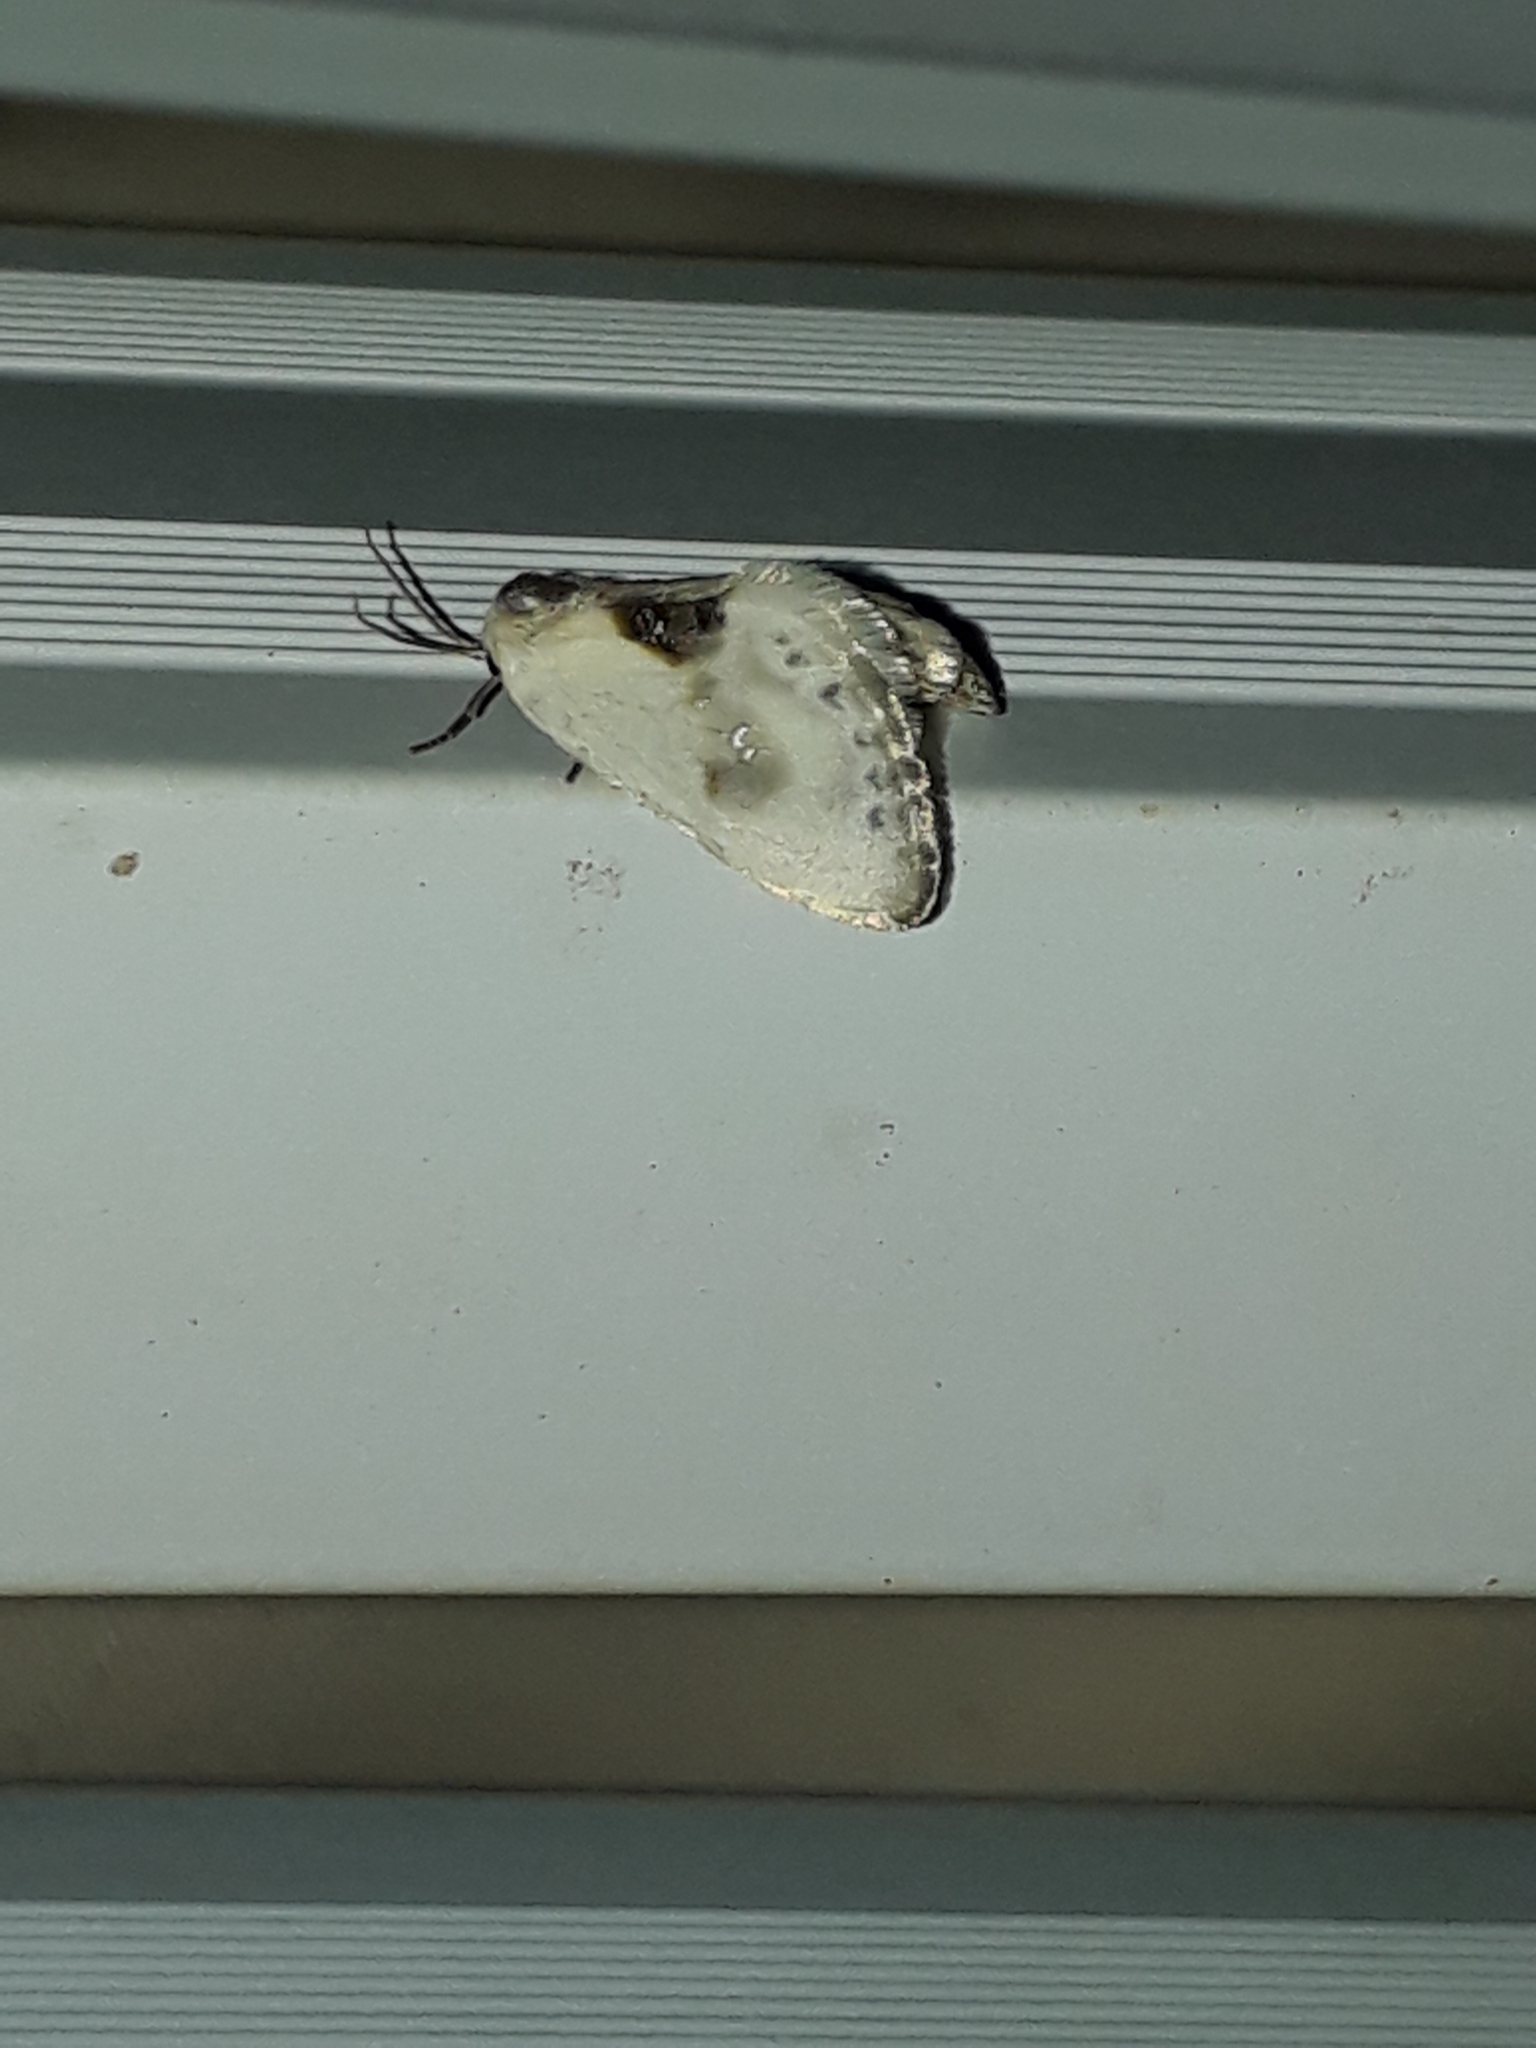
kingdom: Animalia
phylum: Arthropoda
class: Insecta
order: Lepidoptera
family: Drepanidae
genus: Cilix
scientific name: Cilix glaucata
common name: Chinese character
